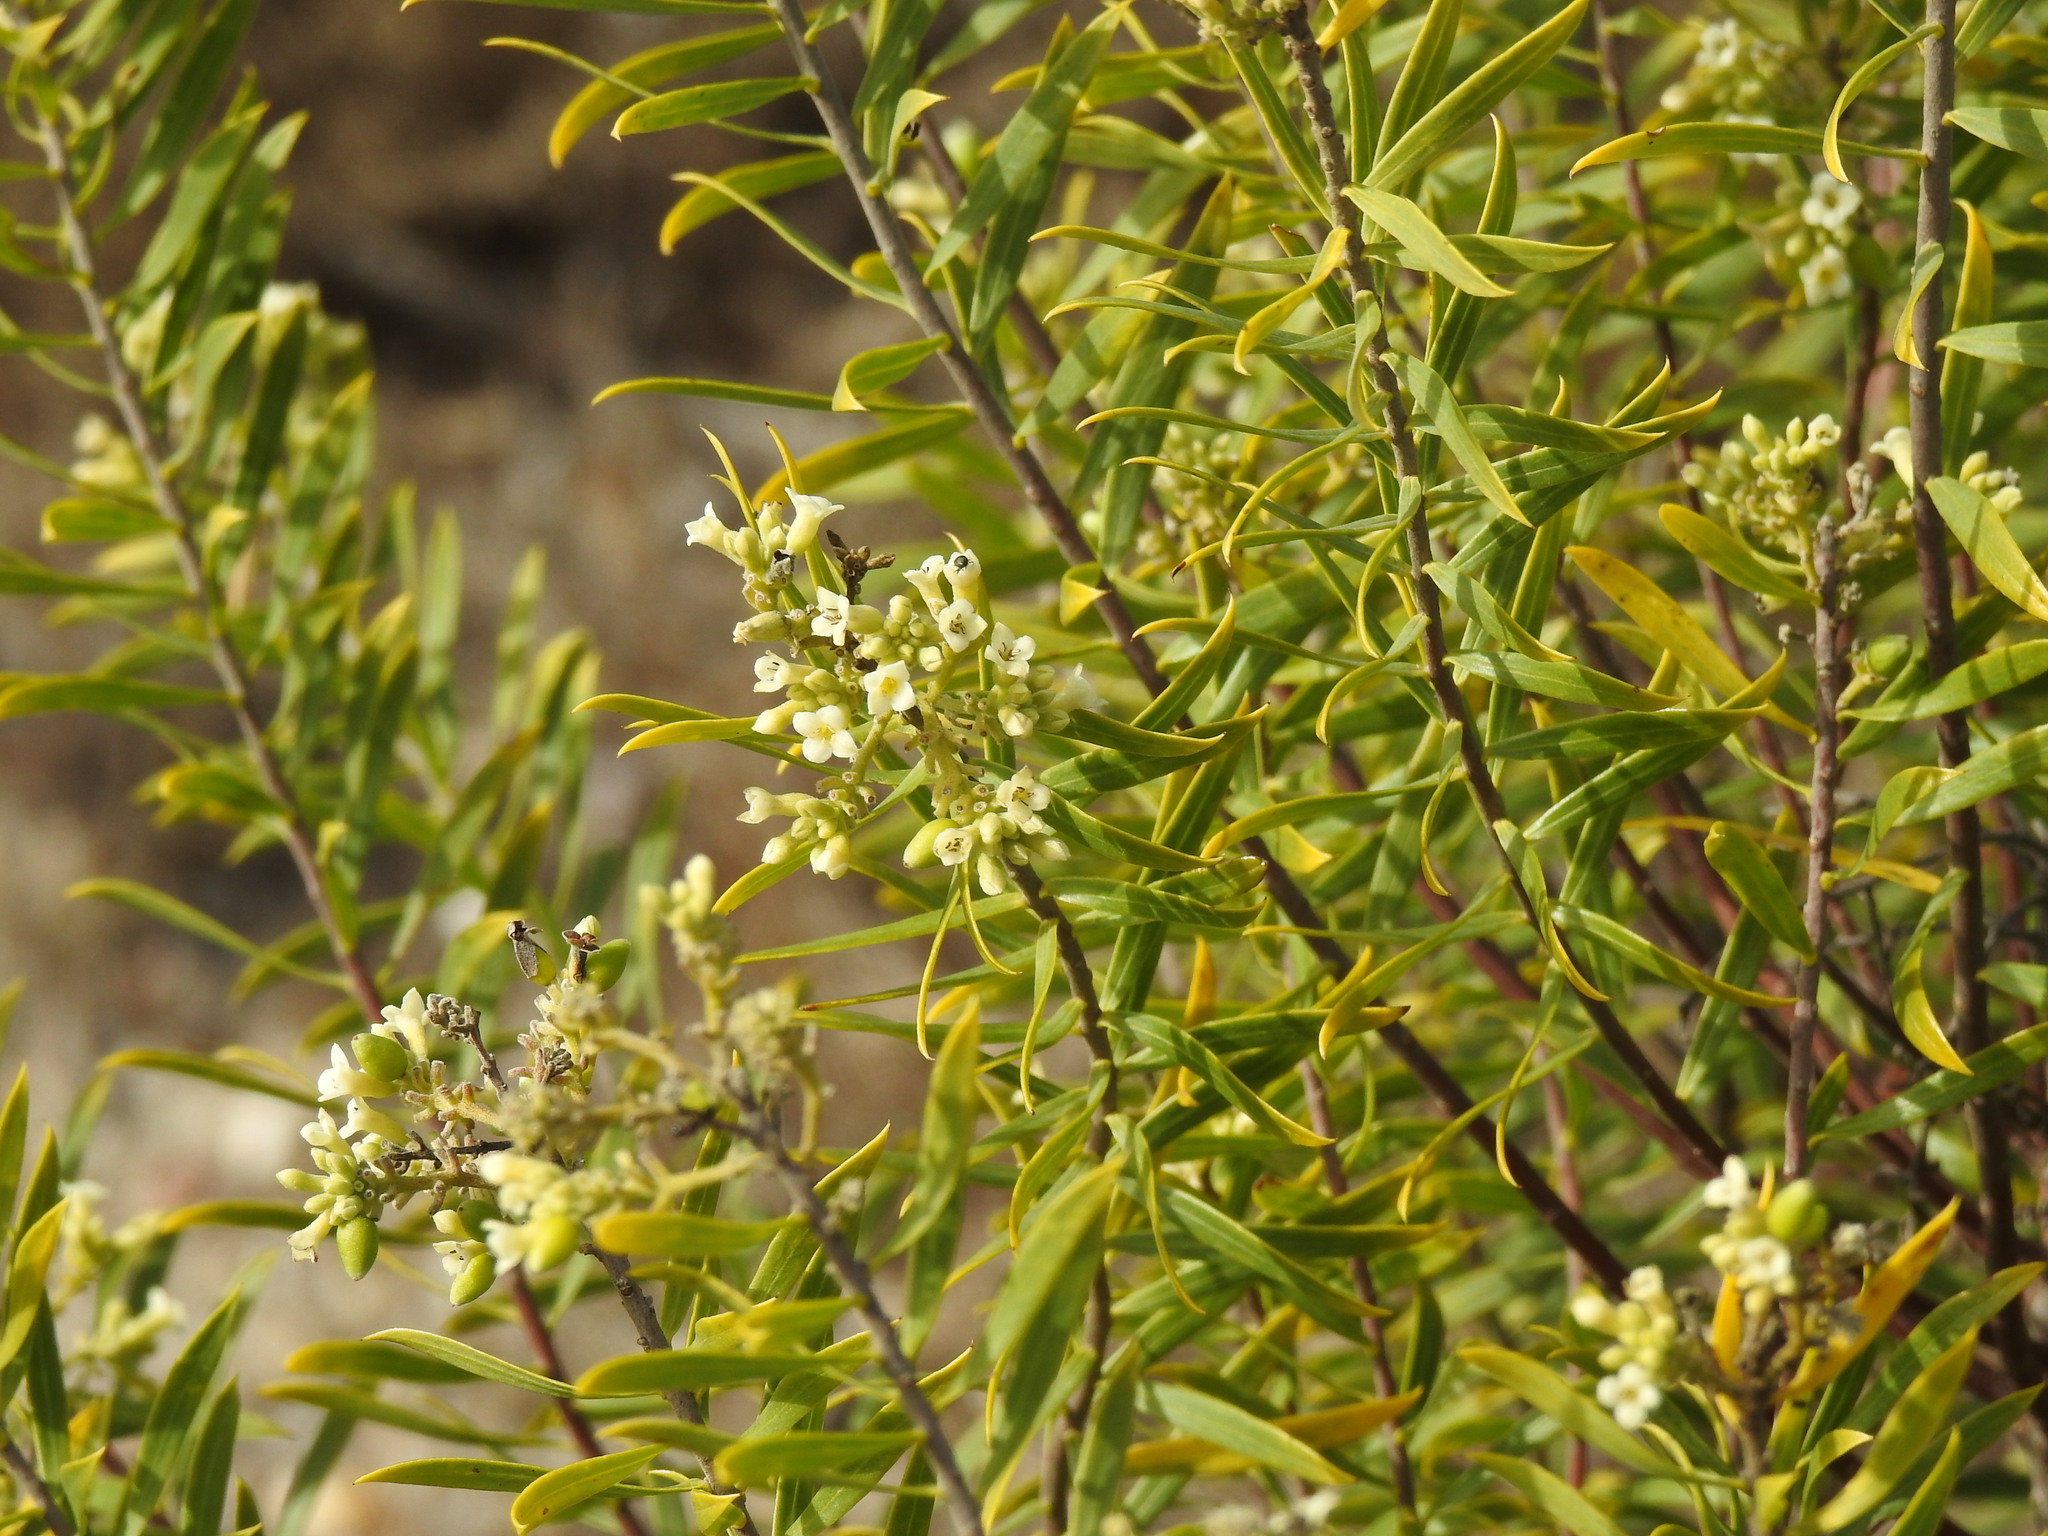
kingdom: Plantae
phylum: Tracheophyta
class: Magnoliopsida
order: Malvales
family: Thymelaeaceae
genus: Daphne
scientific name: Daphne gnidium
